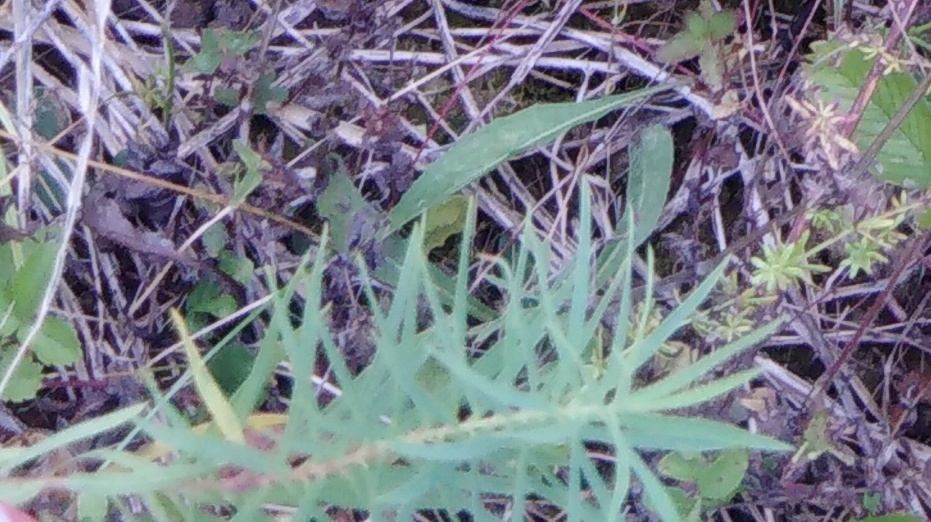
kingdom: Plantae
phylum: Tracheophyta
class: Magnoliopsida
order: Lamiales
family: Plantaginaceae
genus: Linaria
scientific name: Linaria vulgaris
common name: Butter and eggs
